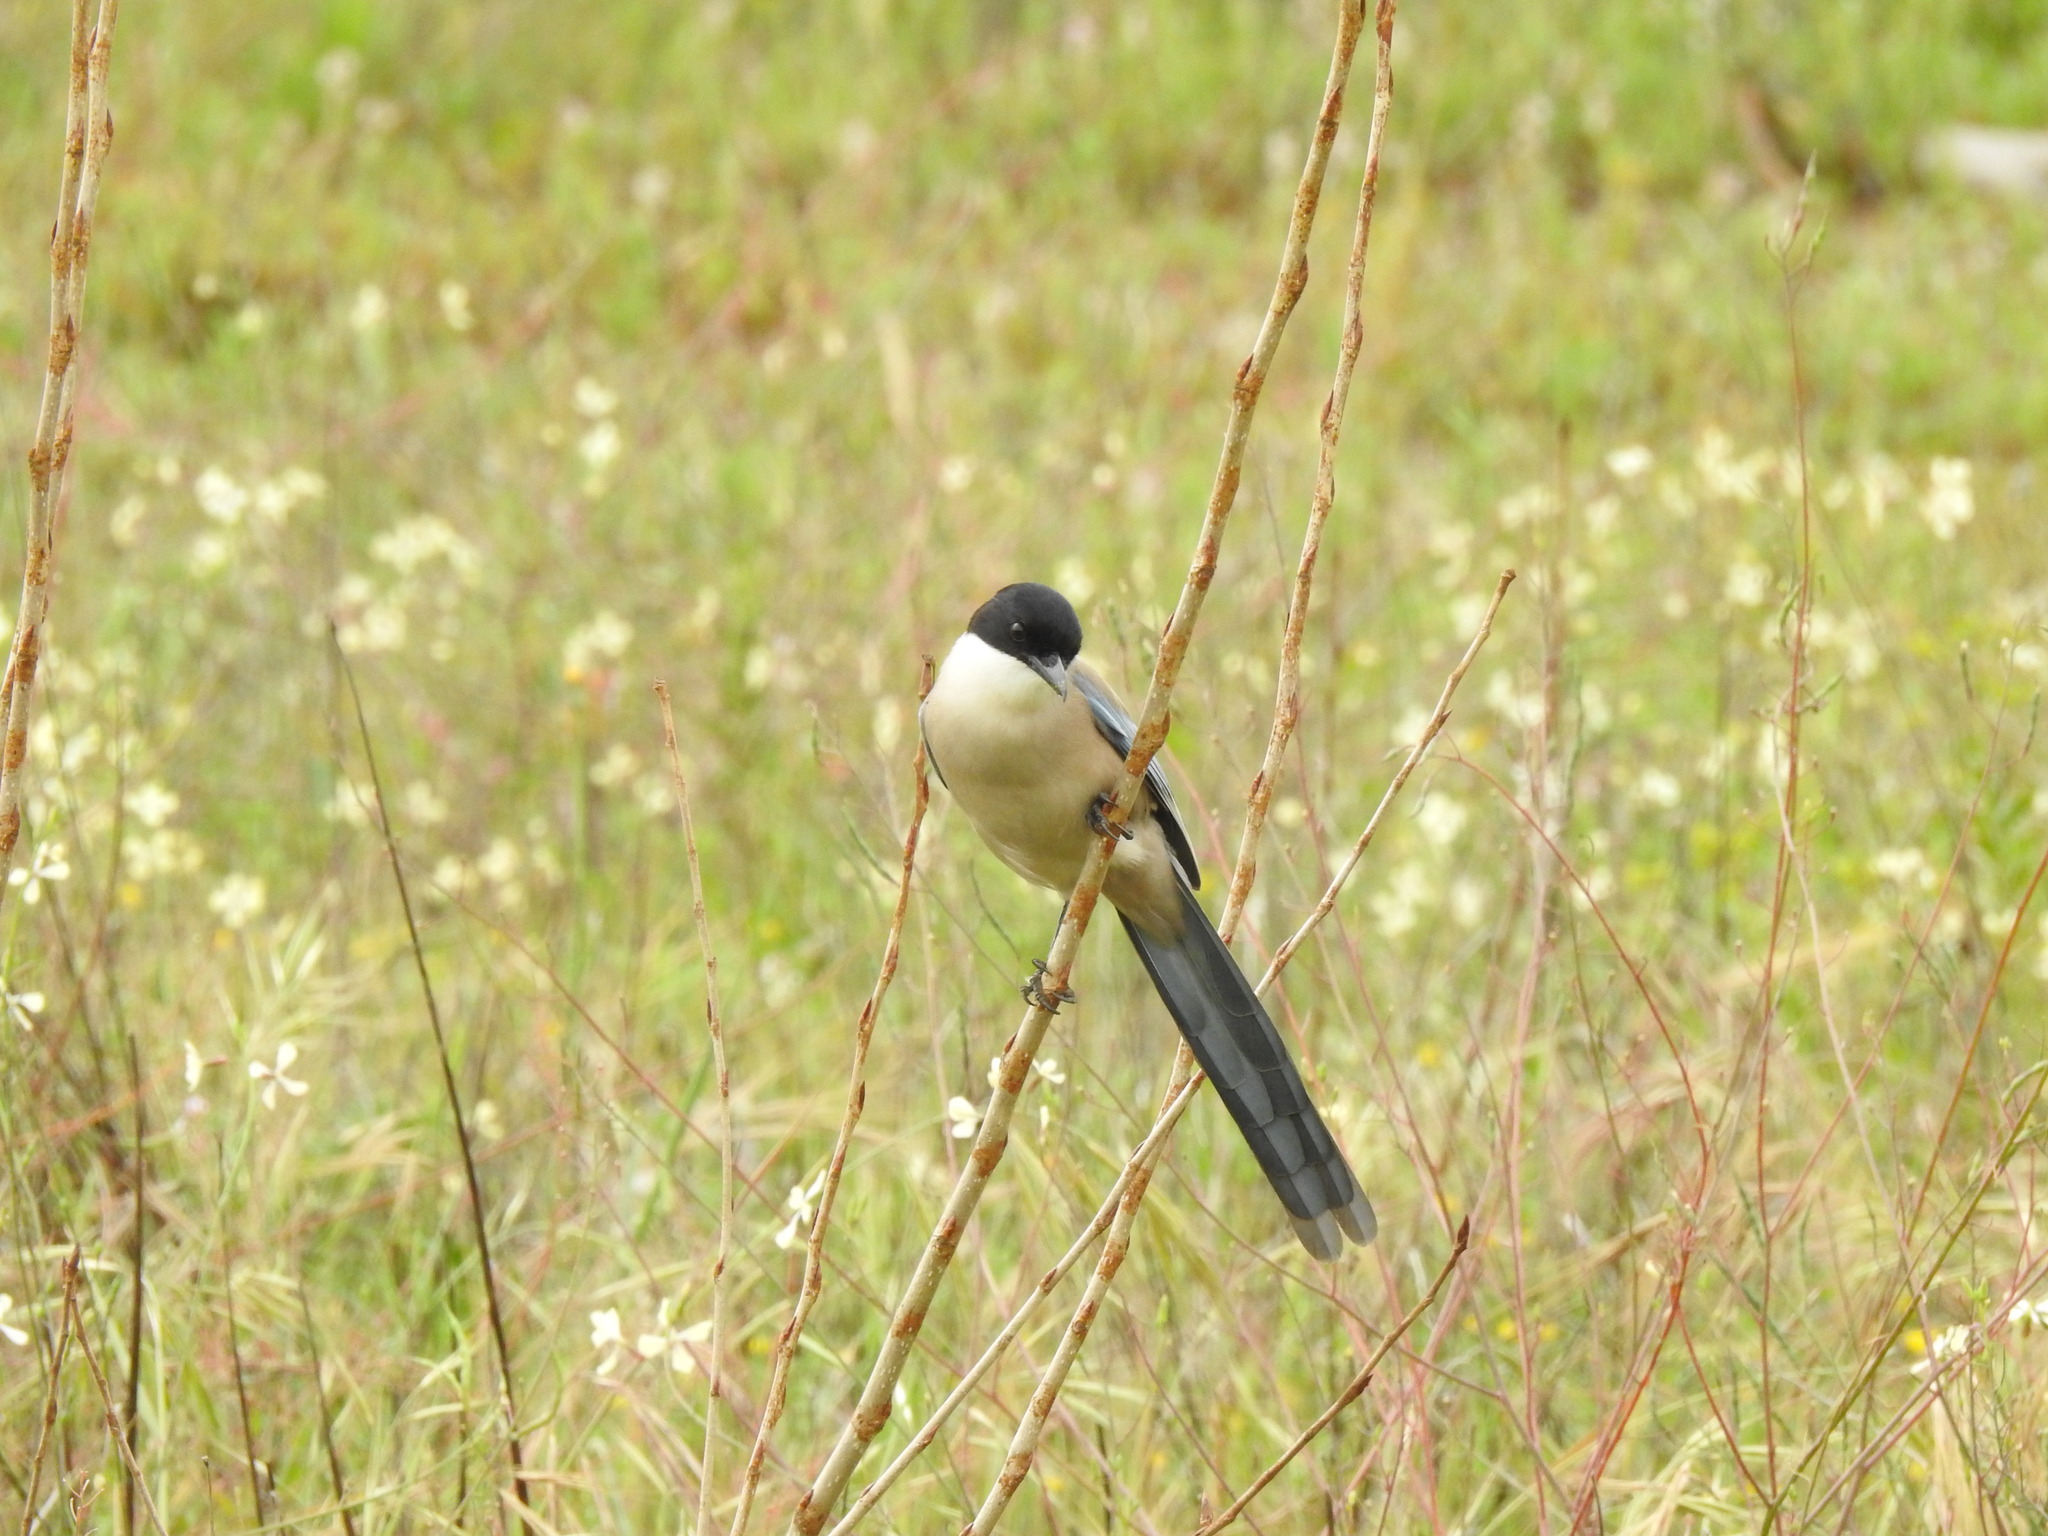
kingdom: Animalia
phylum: Chordata
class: Aves
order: Passeriformes
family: Corvidae
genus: Cyanopica
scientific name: Cyanopica cooki
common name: Iberian magpie
